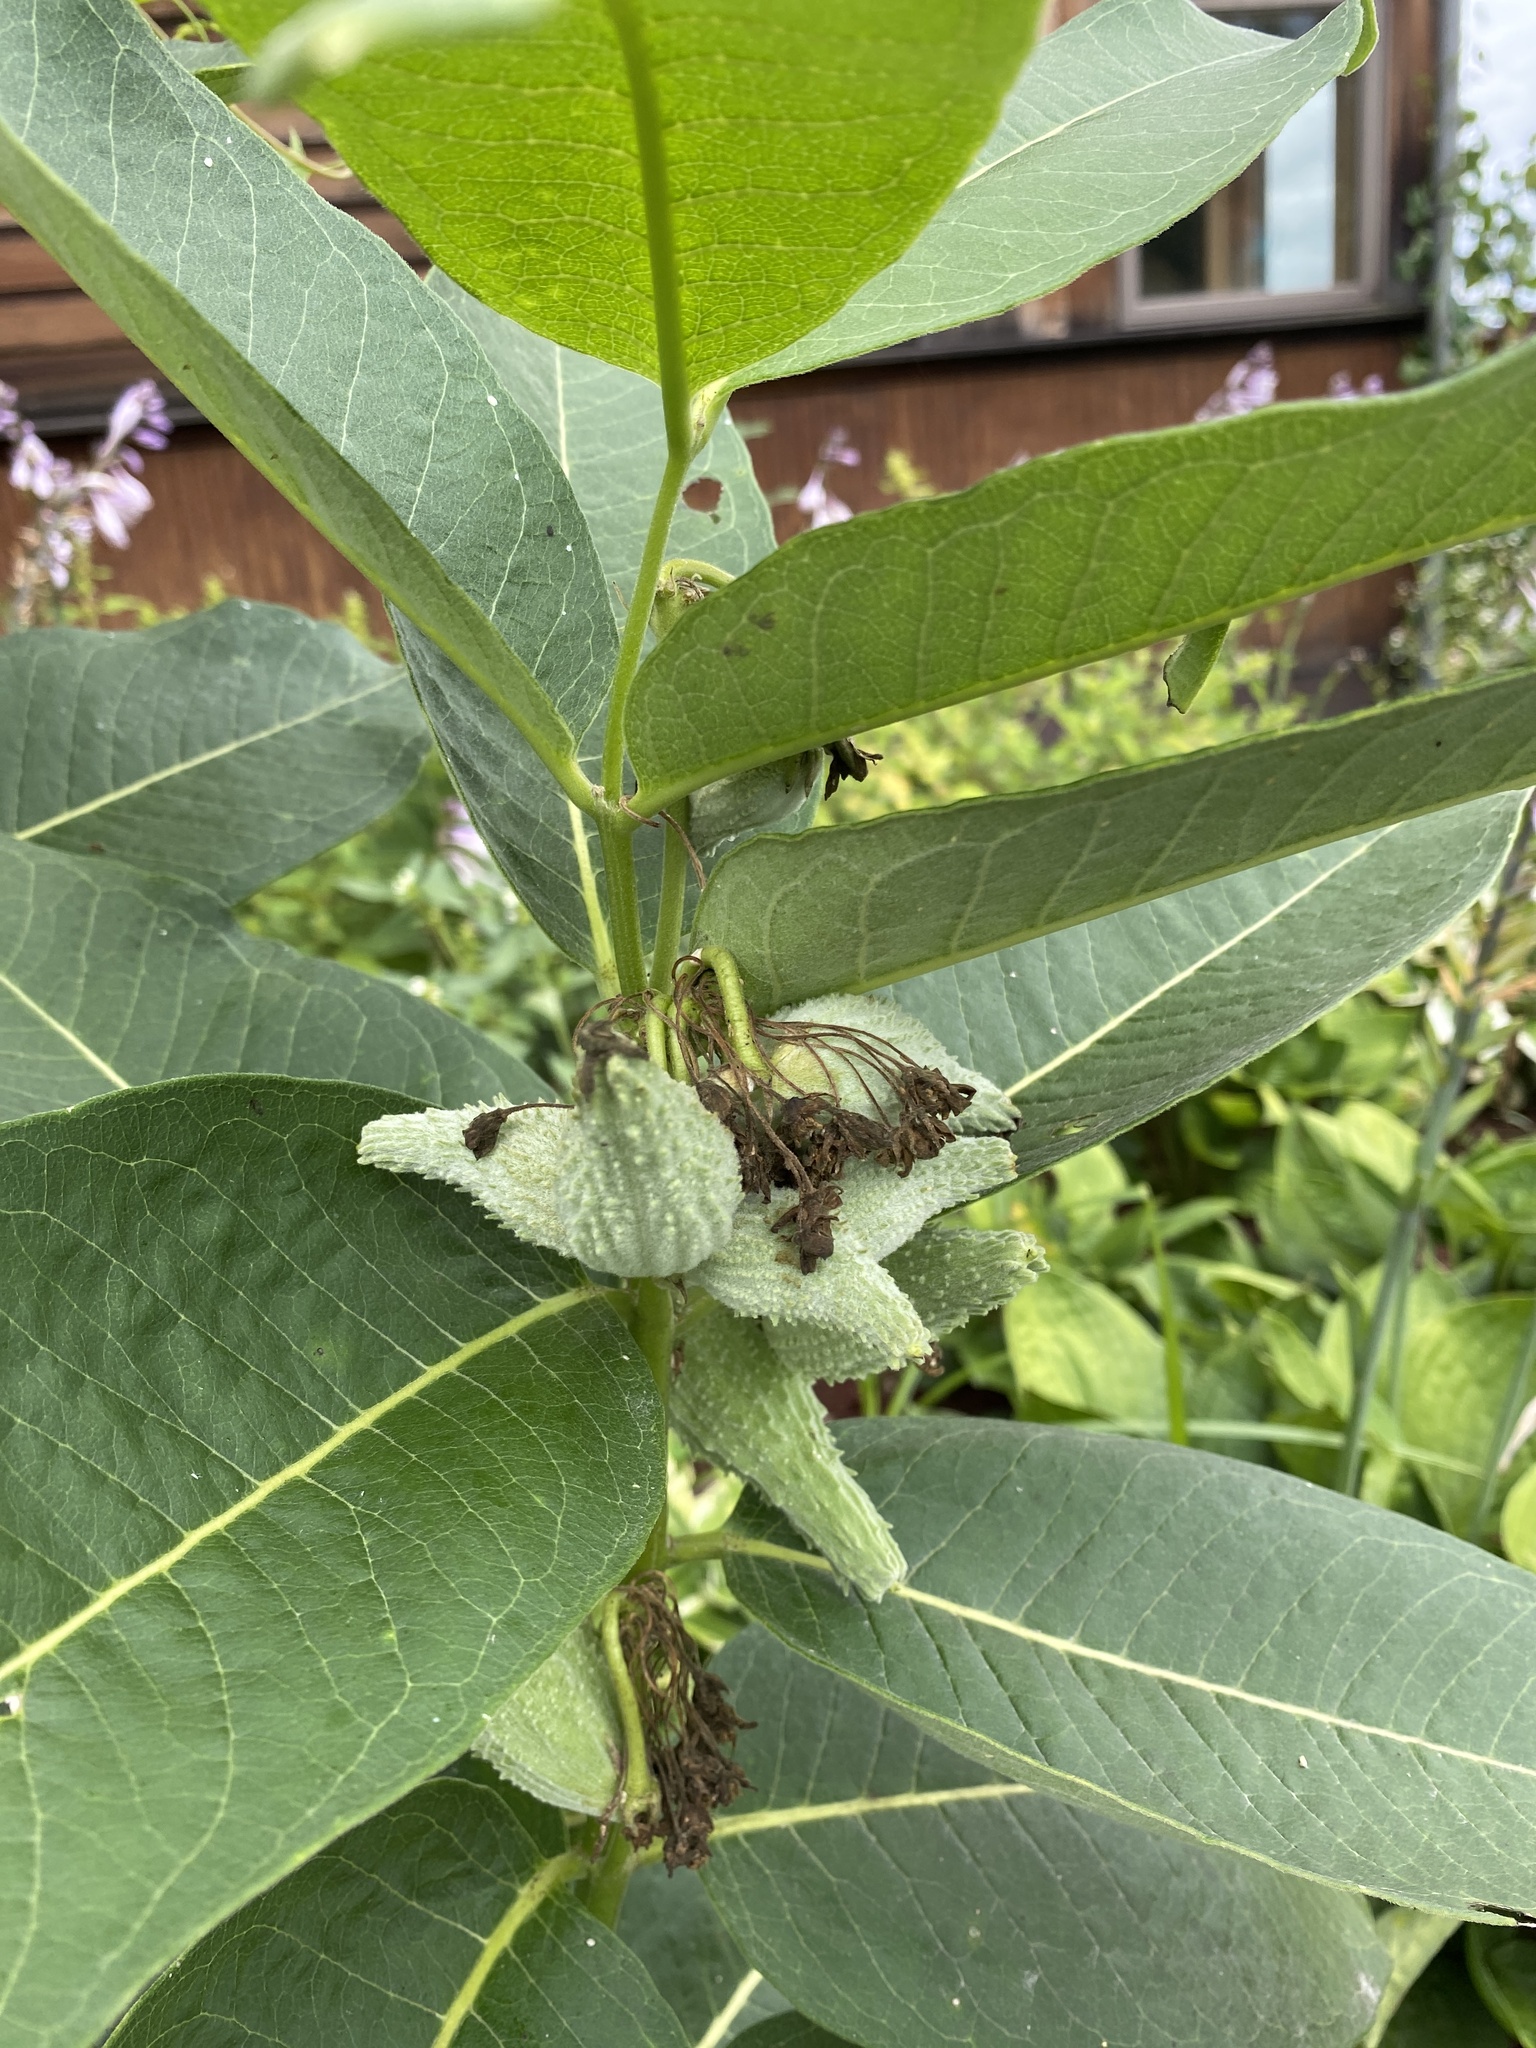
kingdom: Plantae
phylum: Tracheophyta
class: Magnoliopsida
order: Gentianales
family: Apocynaceae
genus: Asclepias
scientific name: Asclepias syriaca
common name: Common milkweed
